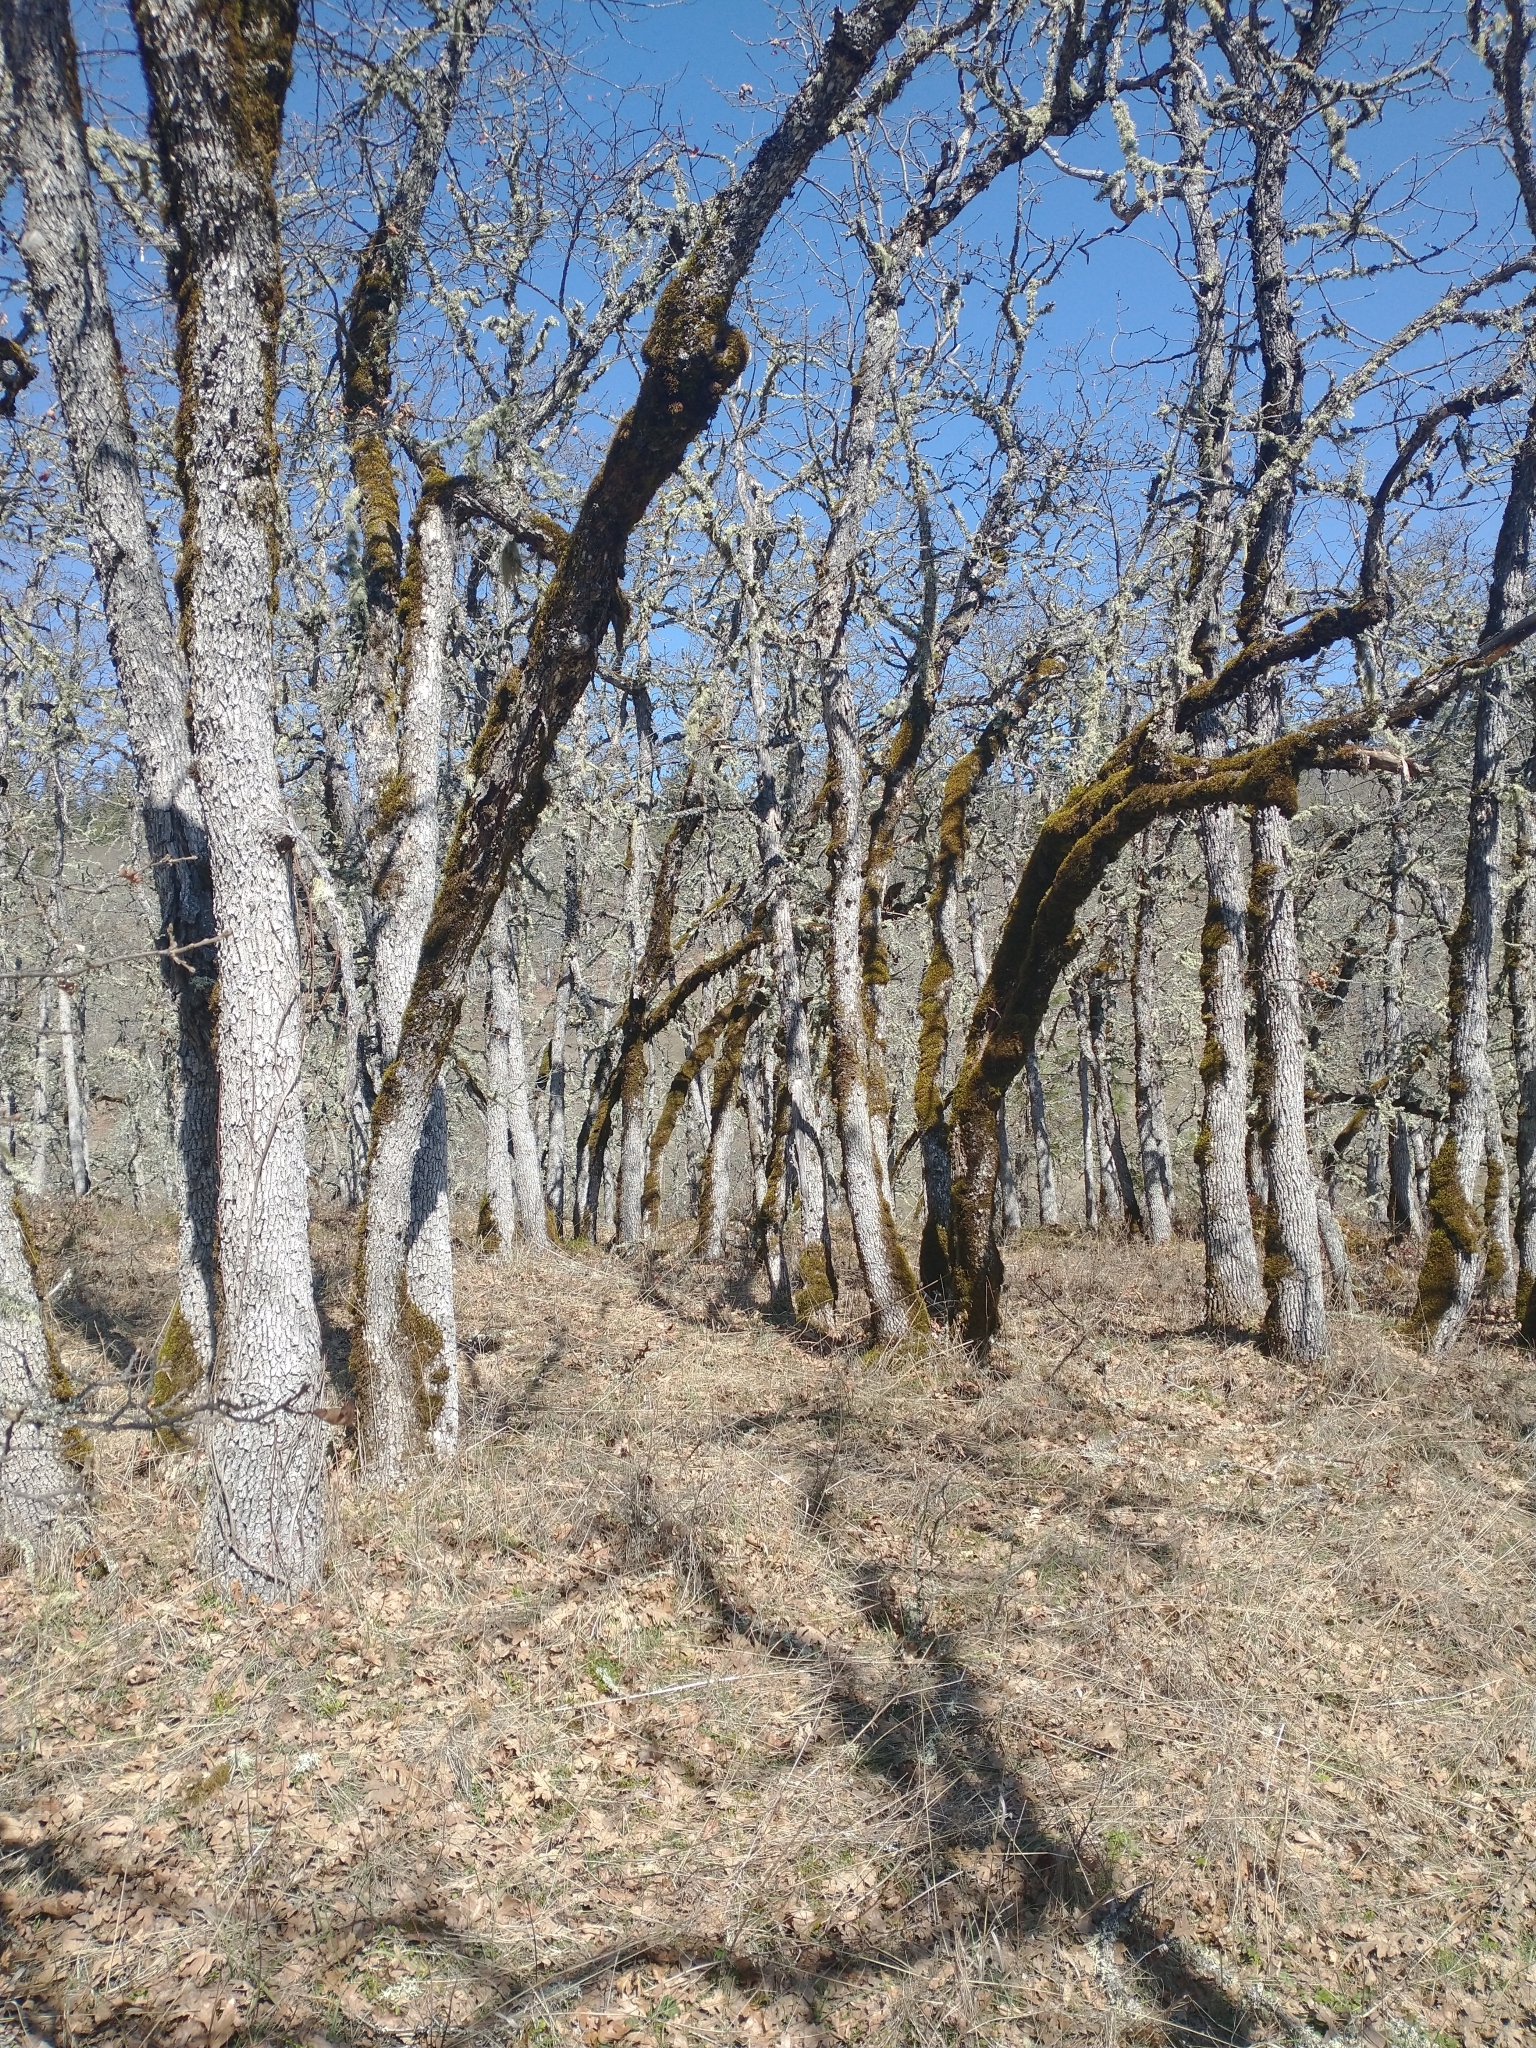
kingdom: Plantae
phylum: Tracheophyta
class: Magnoliopsida
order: Fagales
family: Fagaceae
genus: Quercus
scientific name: Quercus garryana
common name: Garry oak
